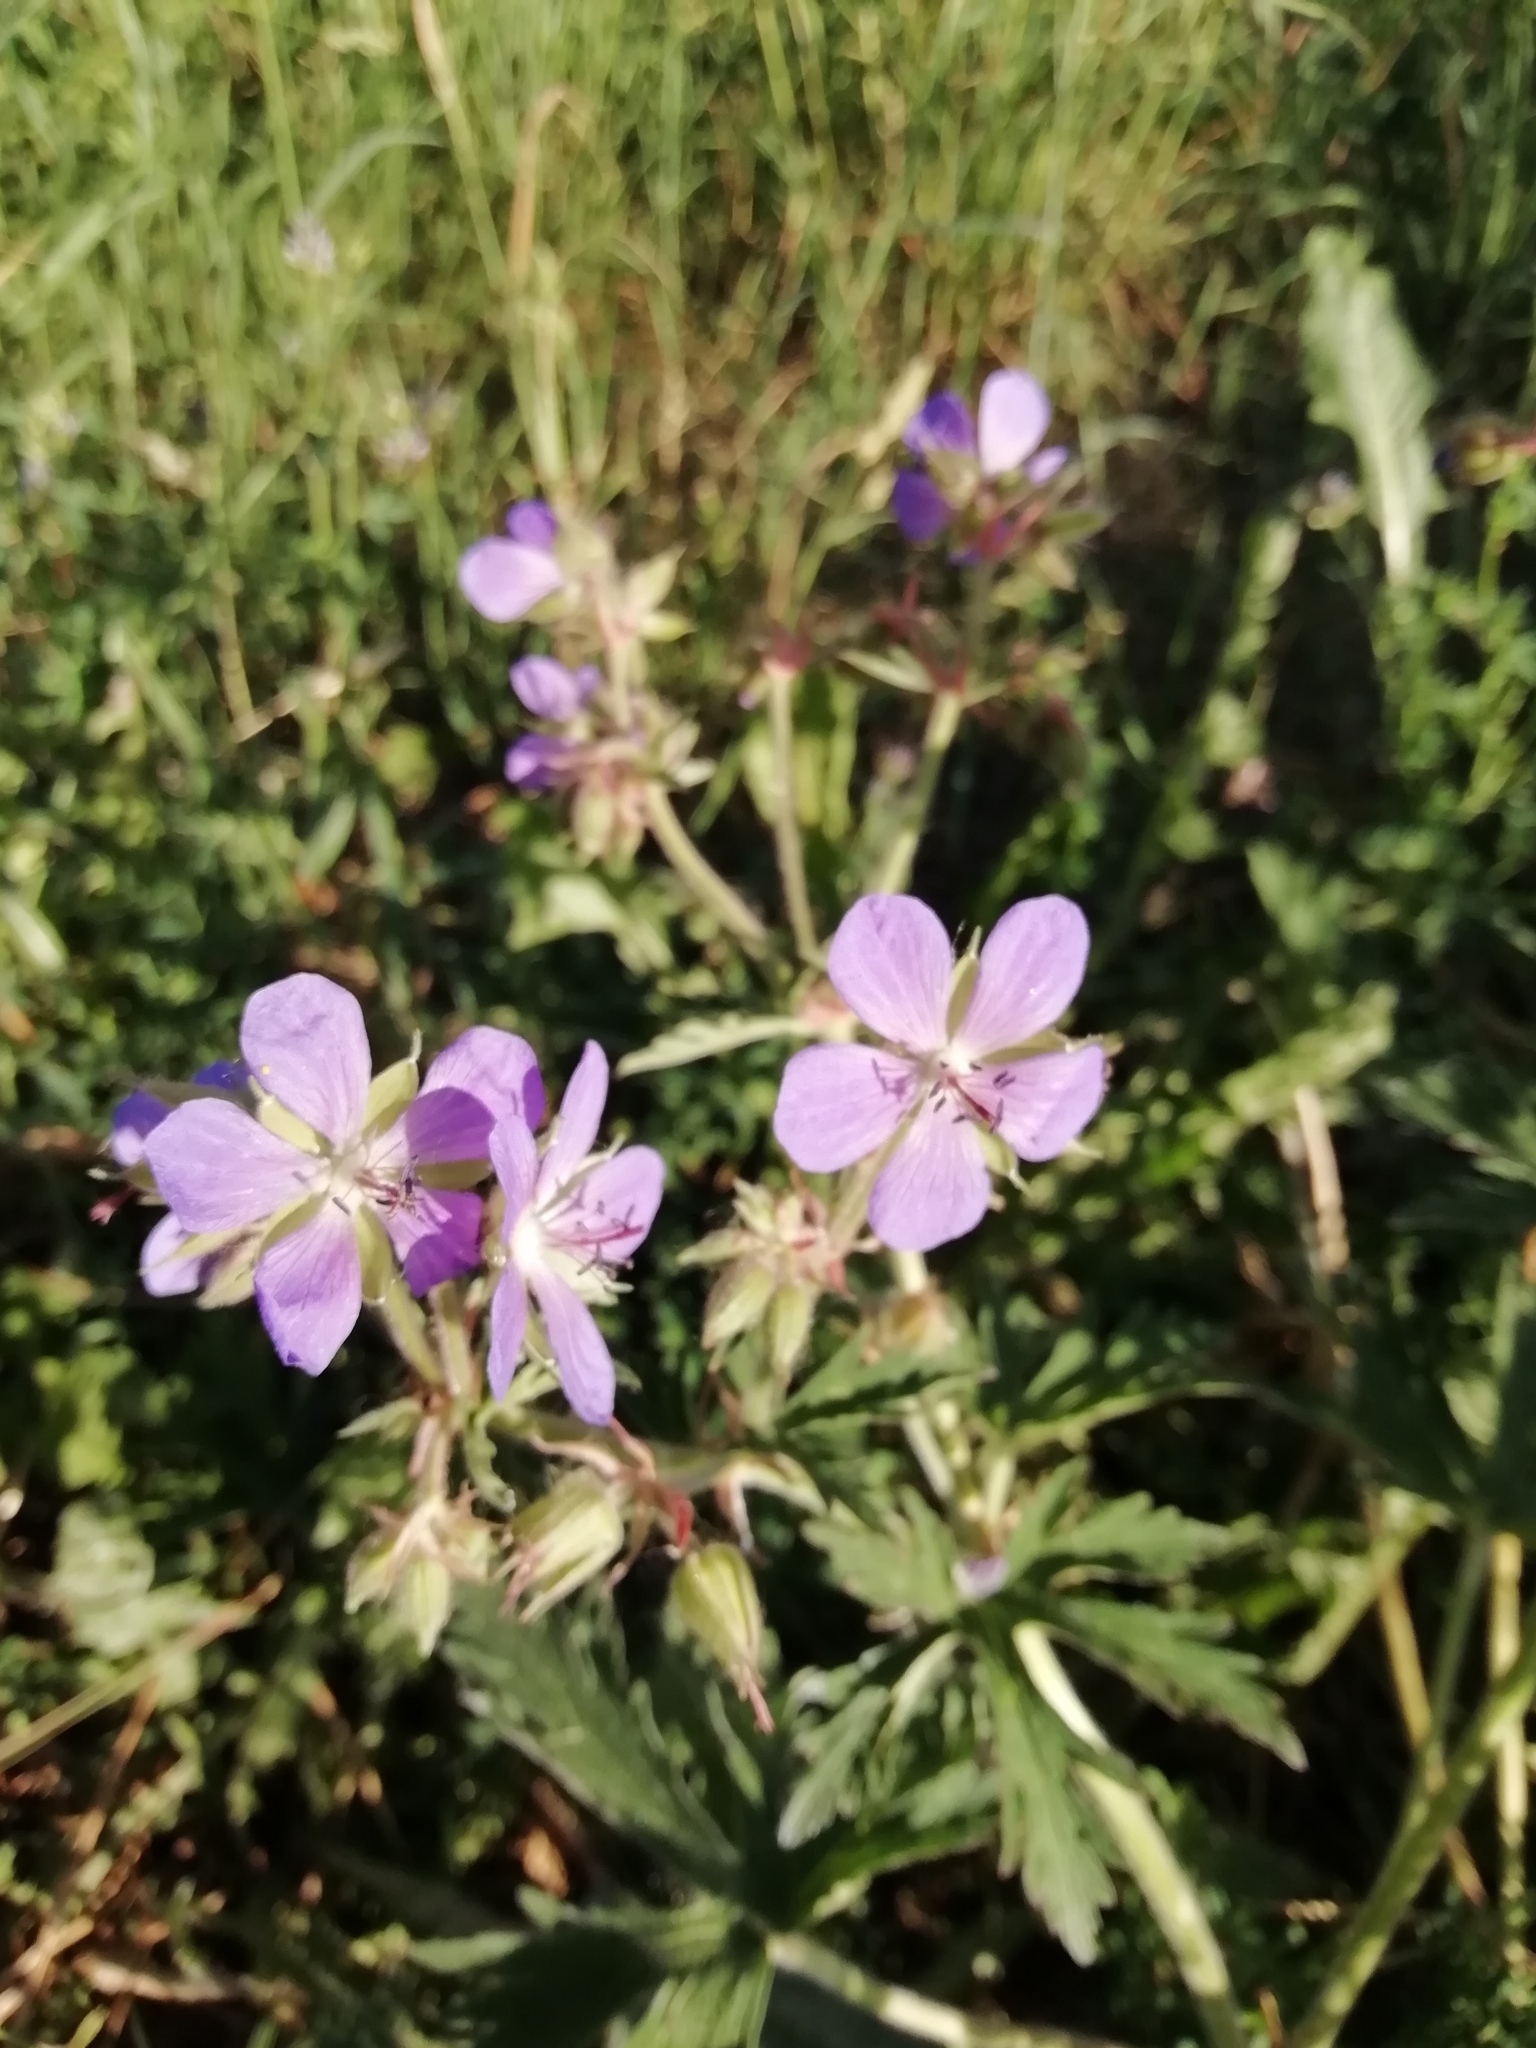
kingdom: Plantae
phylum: Tracheophyta
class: Magnoliopsida
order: Geraniales
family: Geraniaceae
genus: Geranium
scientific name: Geranium pratense
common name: Meadow crane's-bill
